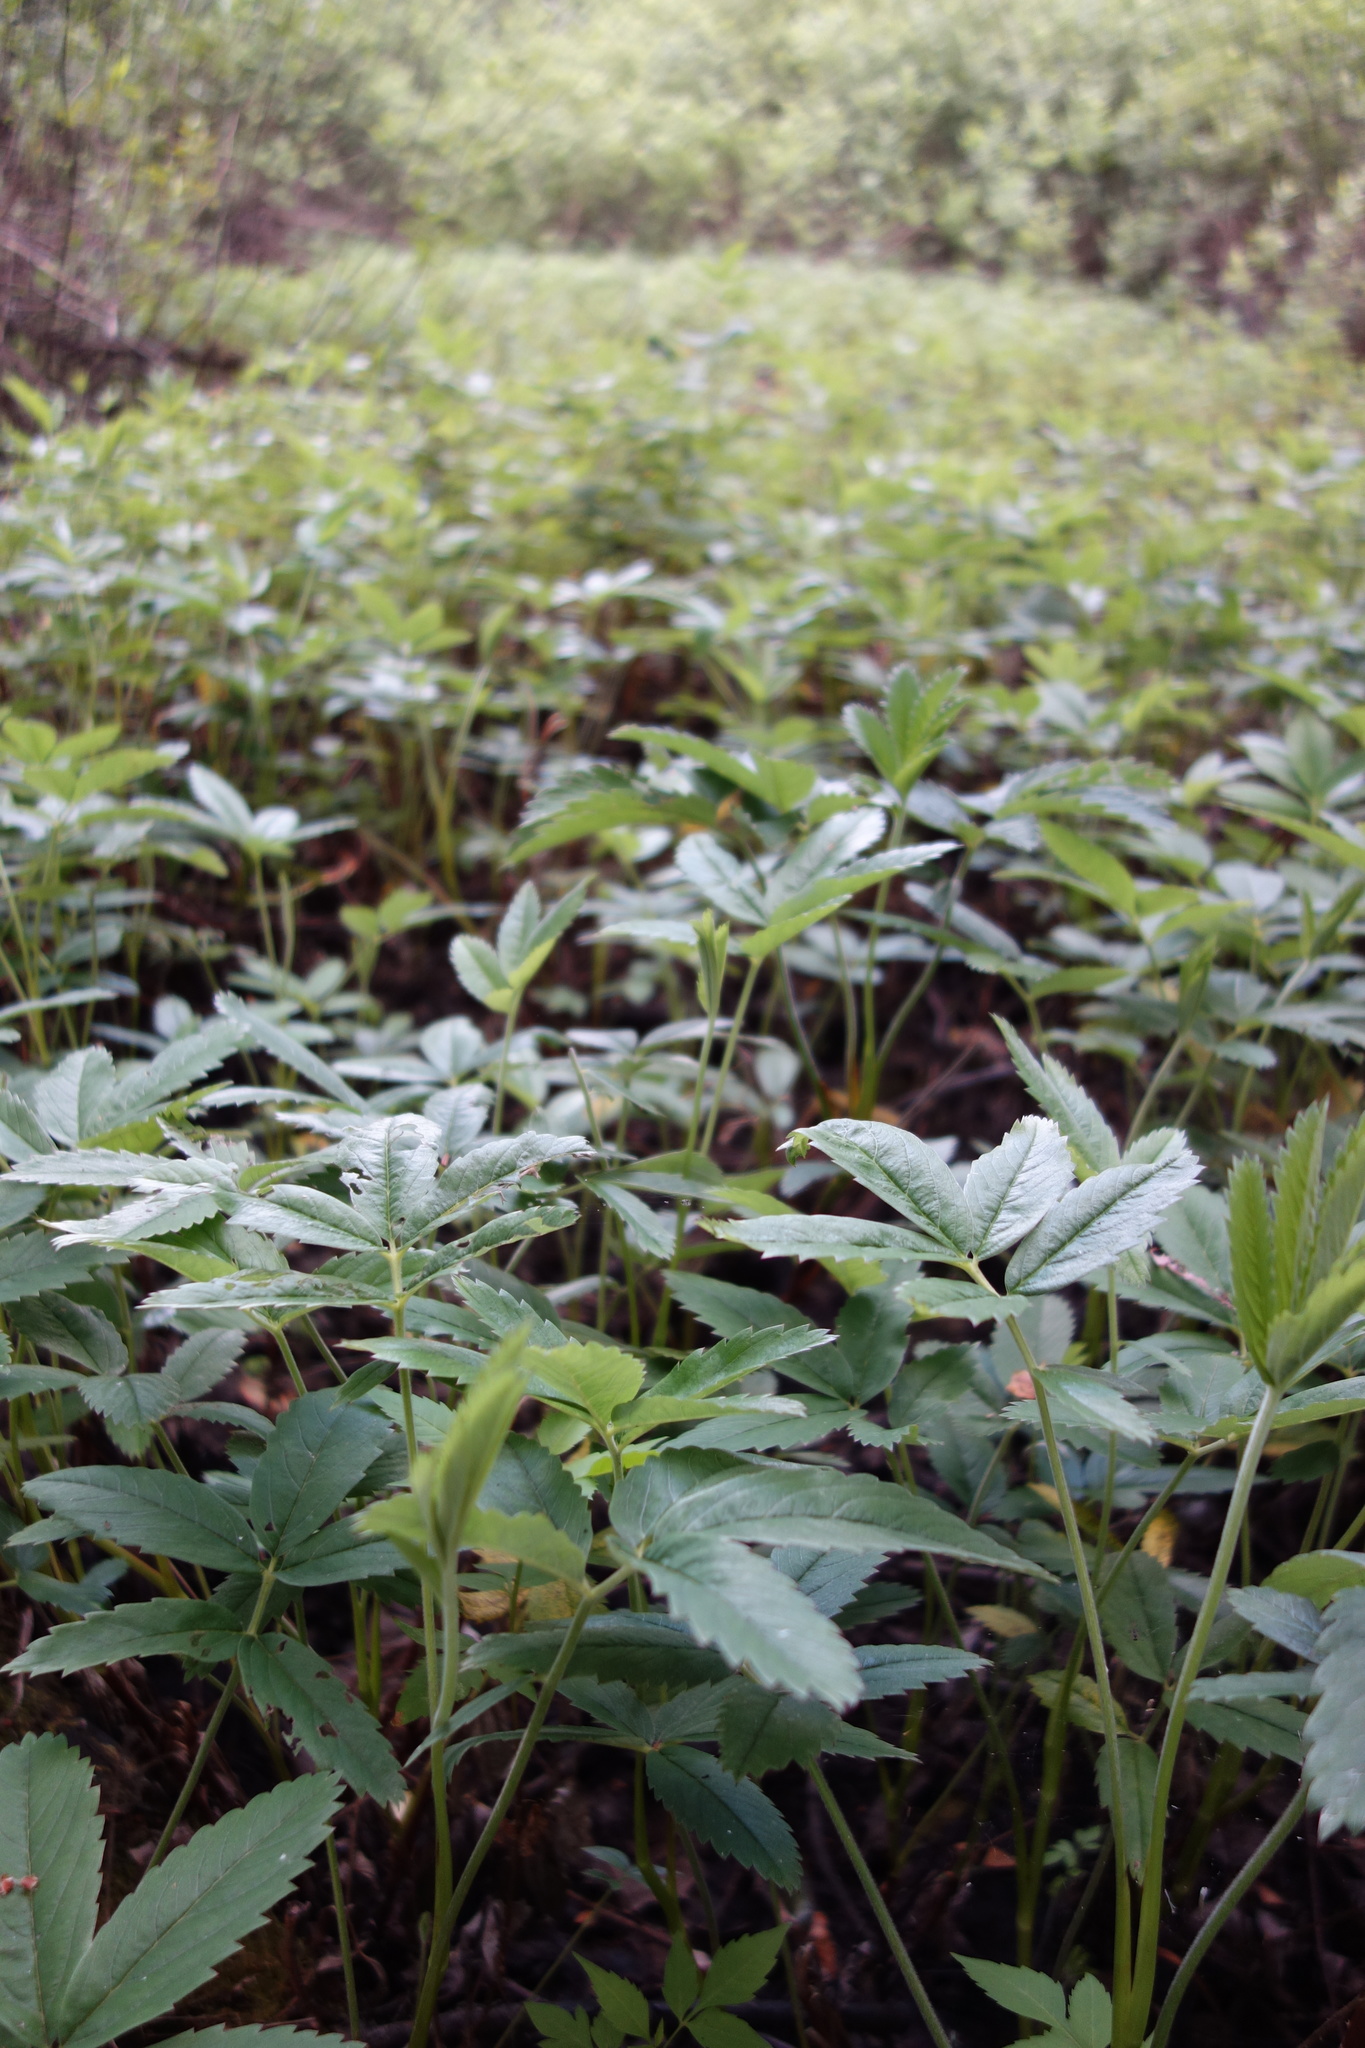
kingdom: Plantae
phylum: Tracheophyta
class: Magnoliopsida
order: Rosales
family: Rosaceae
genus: Comarum
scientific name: Comarum palustre
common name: Marsh cinquefoil
